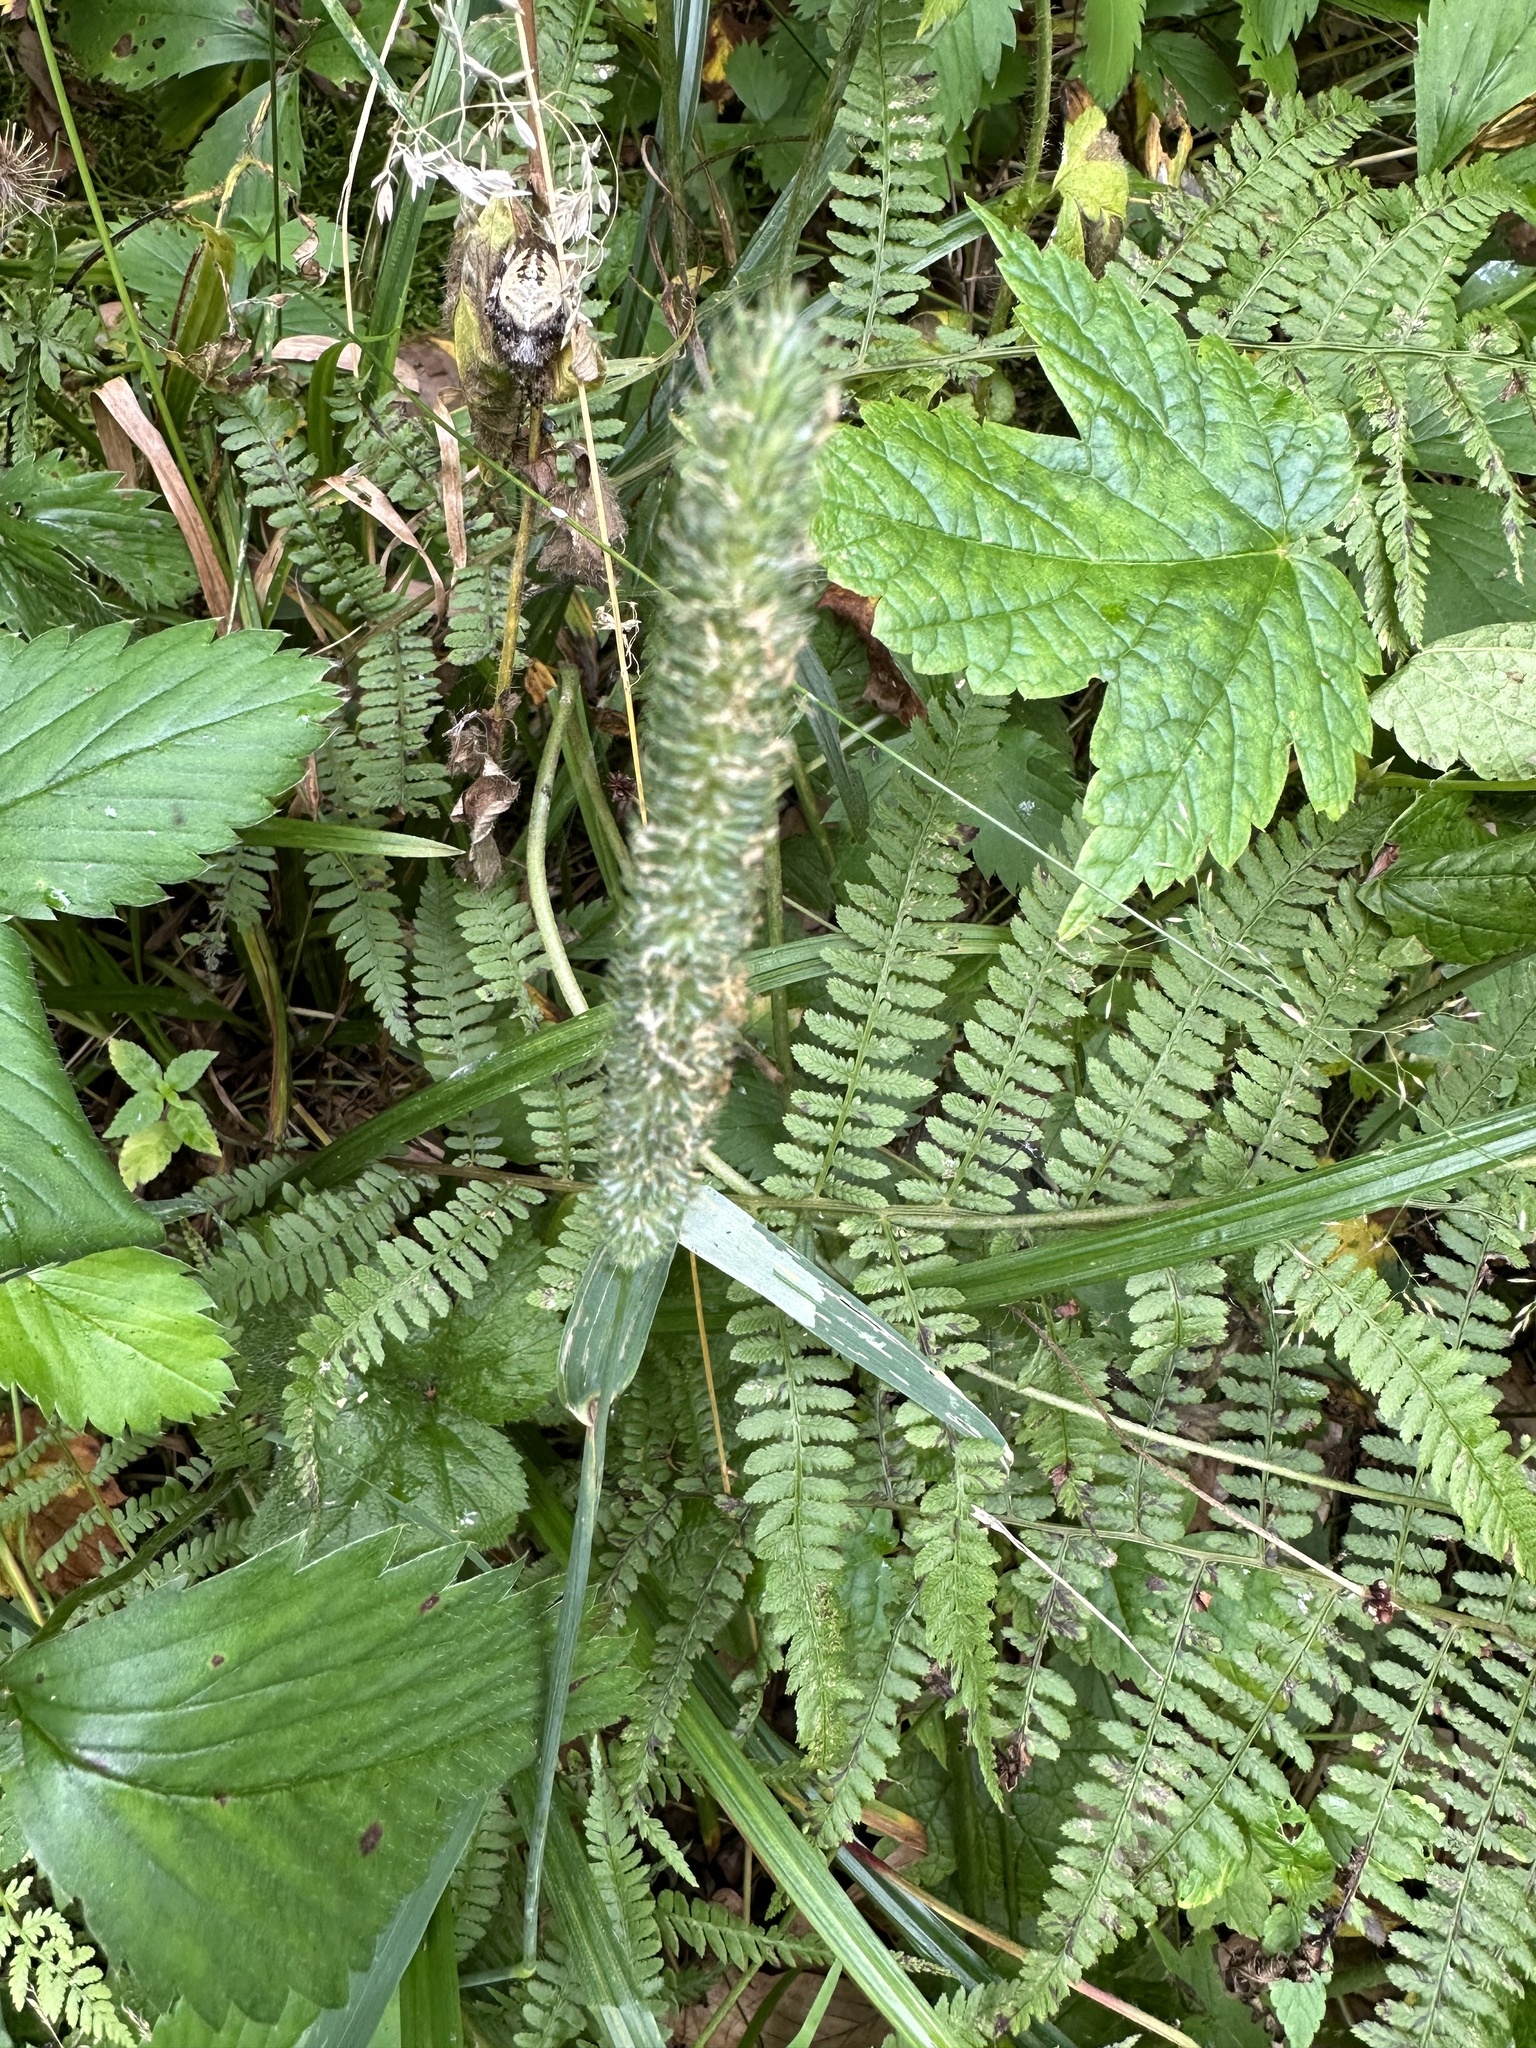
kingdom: Plantae
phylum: Tracheophyta
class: Liliopsida
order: Poales
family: Poaceae
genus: Phleum
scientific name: Phleum pratense
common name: Timothy grass
